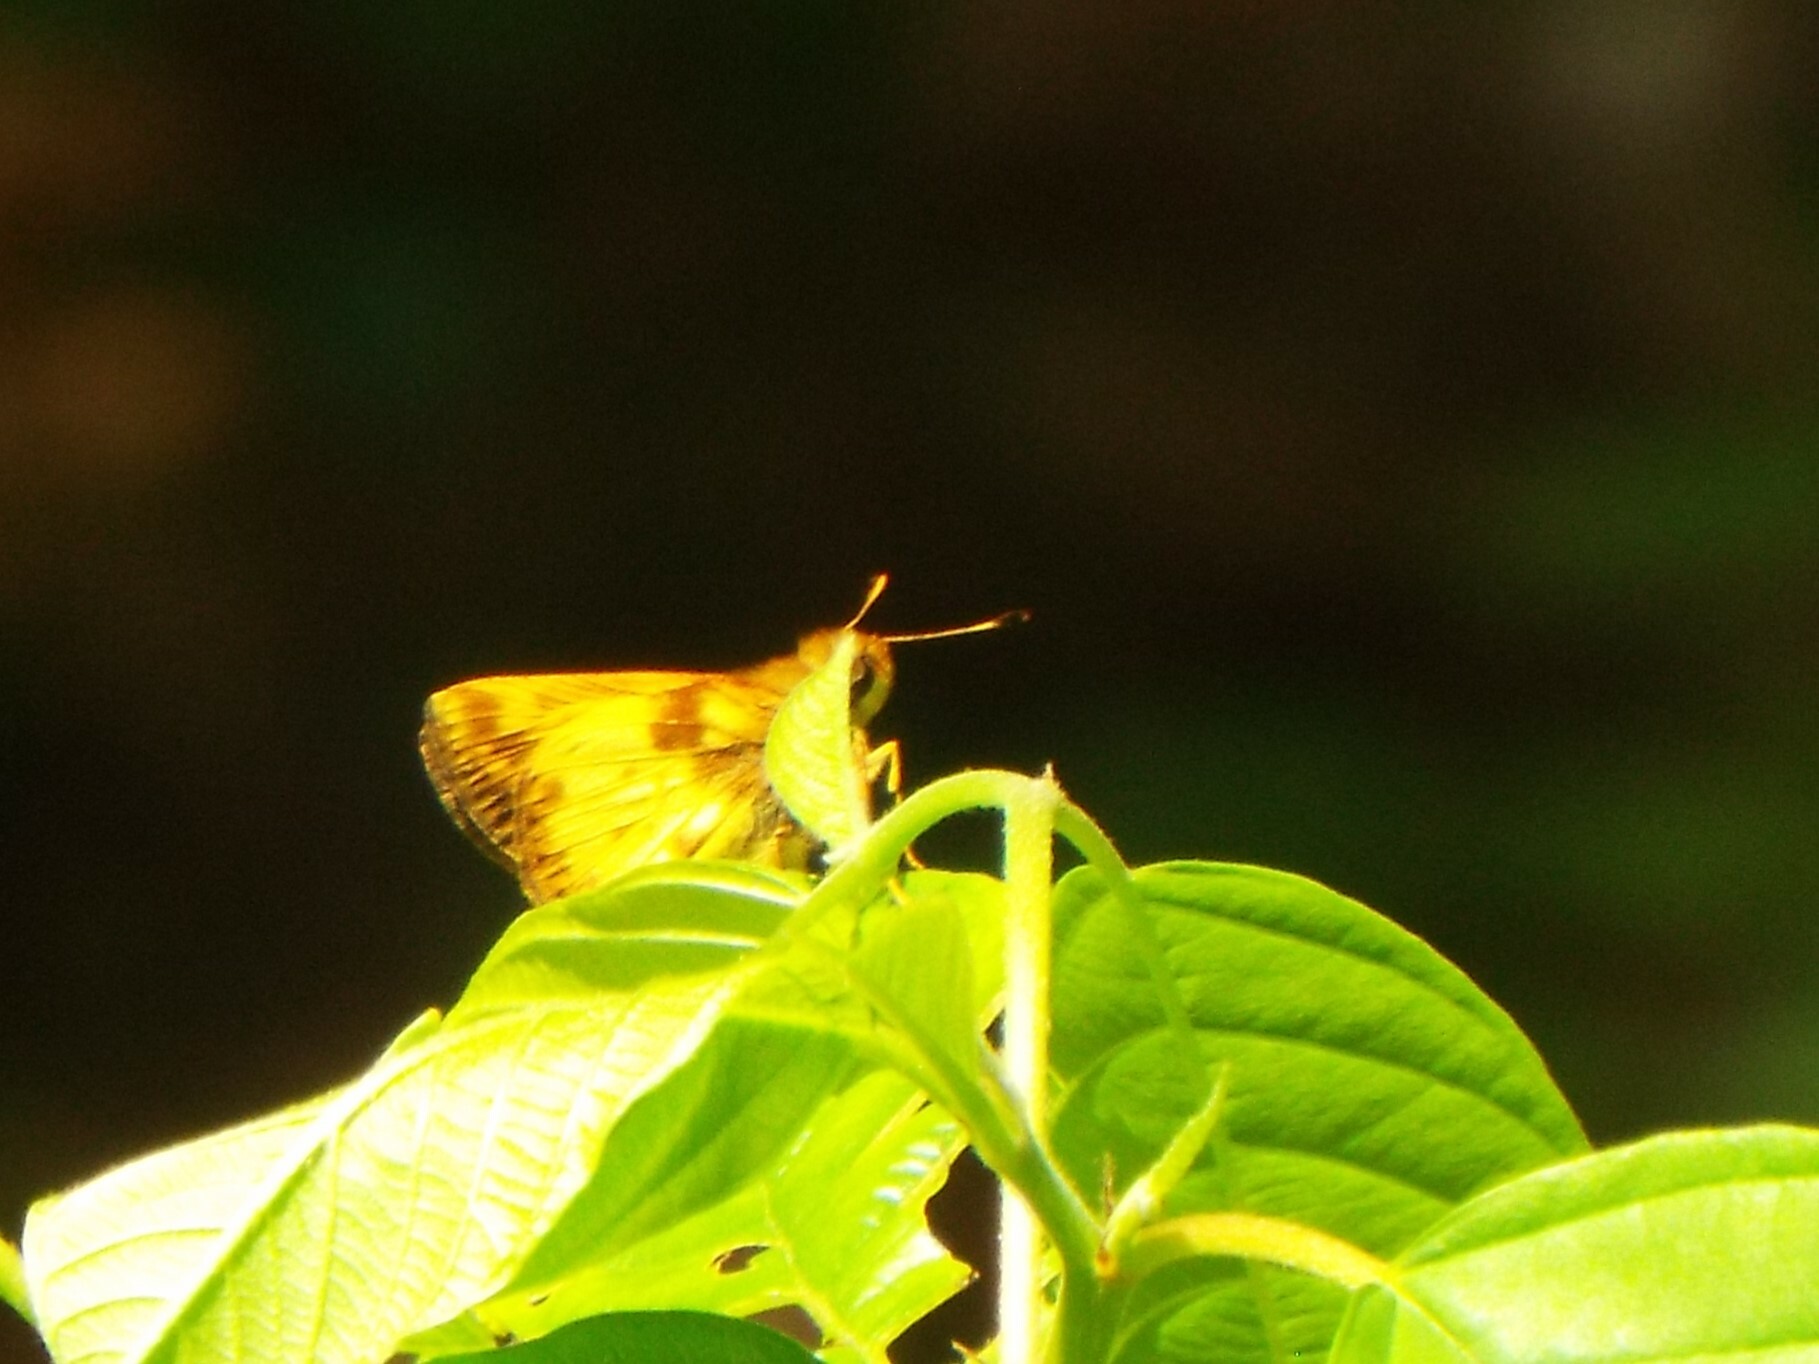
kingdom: Animalia
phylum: Arthropoda
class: Insecta
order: Lepidoptera
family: Hesperiidae
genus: Lon
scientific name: Lon zabulon
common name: Zabulon skipper
